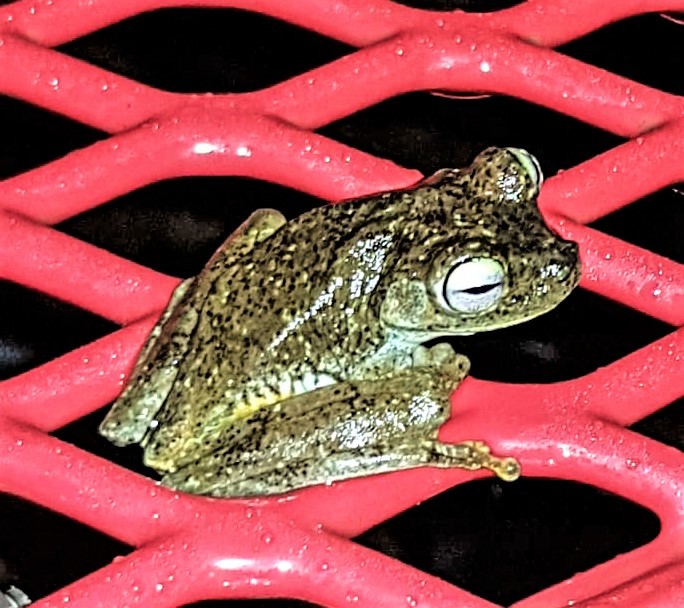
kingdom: Animalia
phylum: Chordata
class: Amphibia
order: Anura
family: Hylidae
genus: Boana
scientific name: Boana xerophylla
